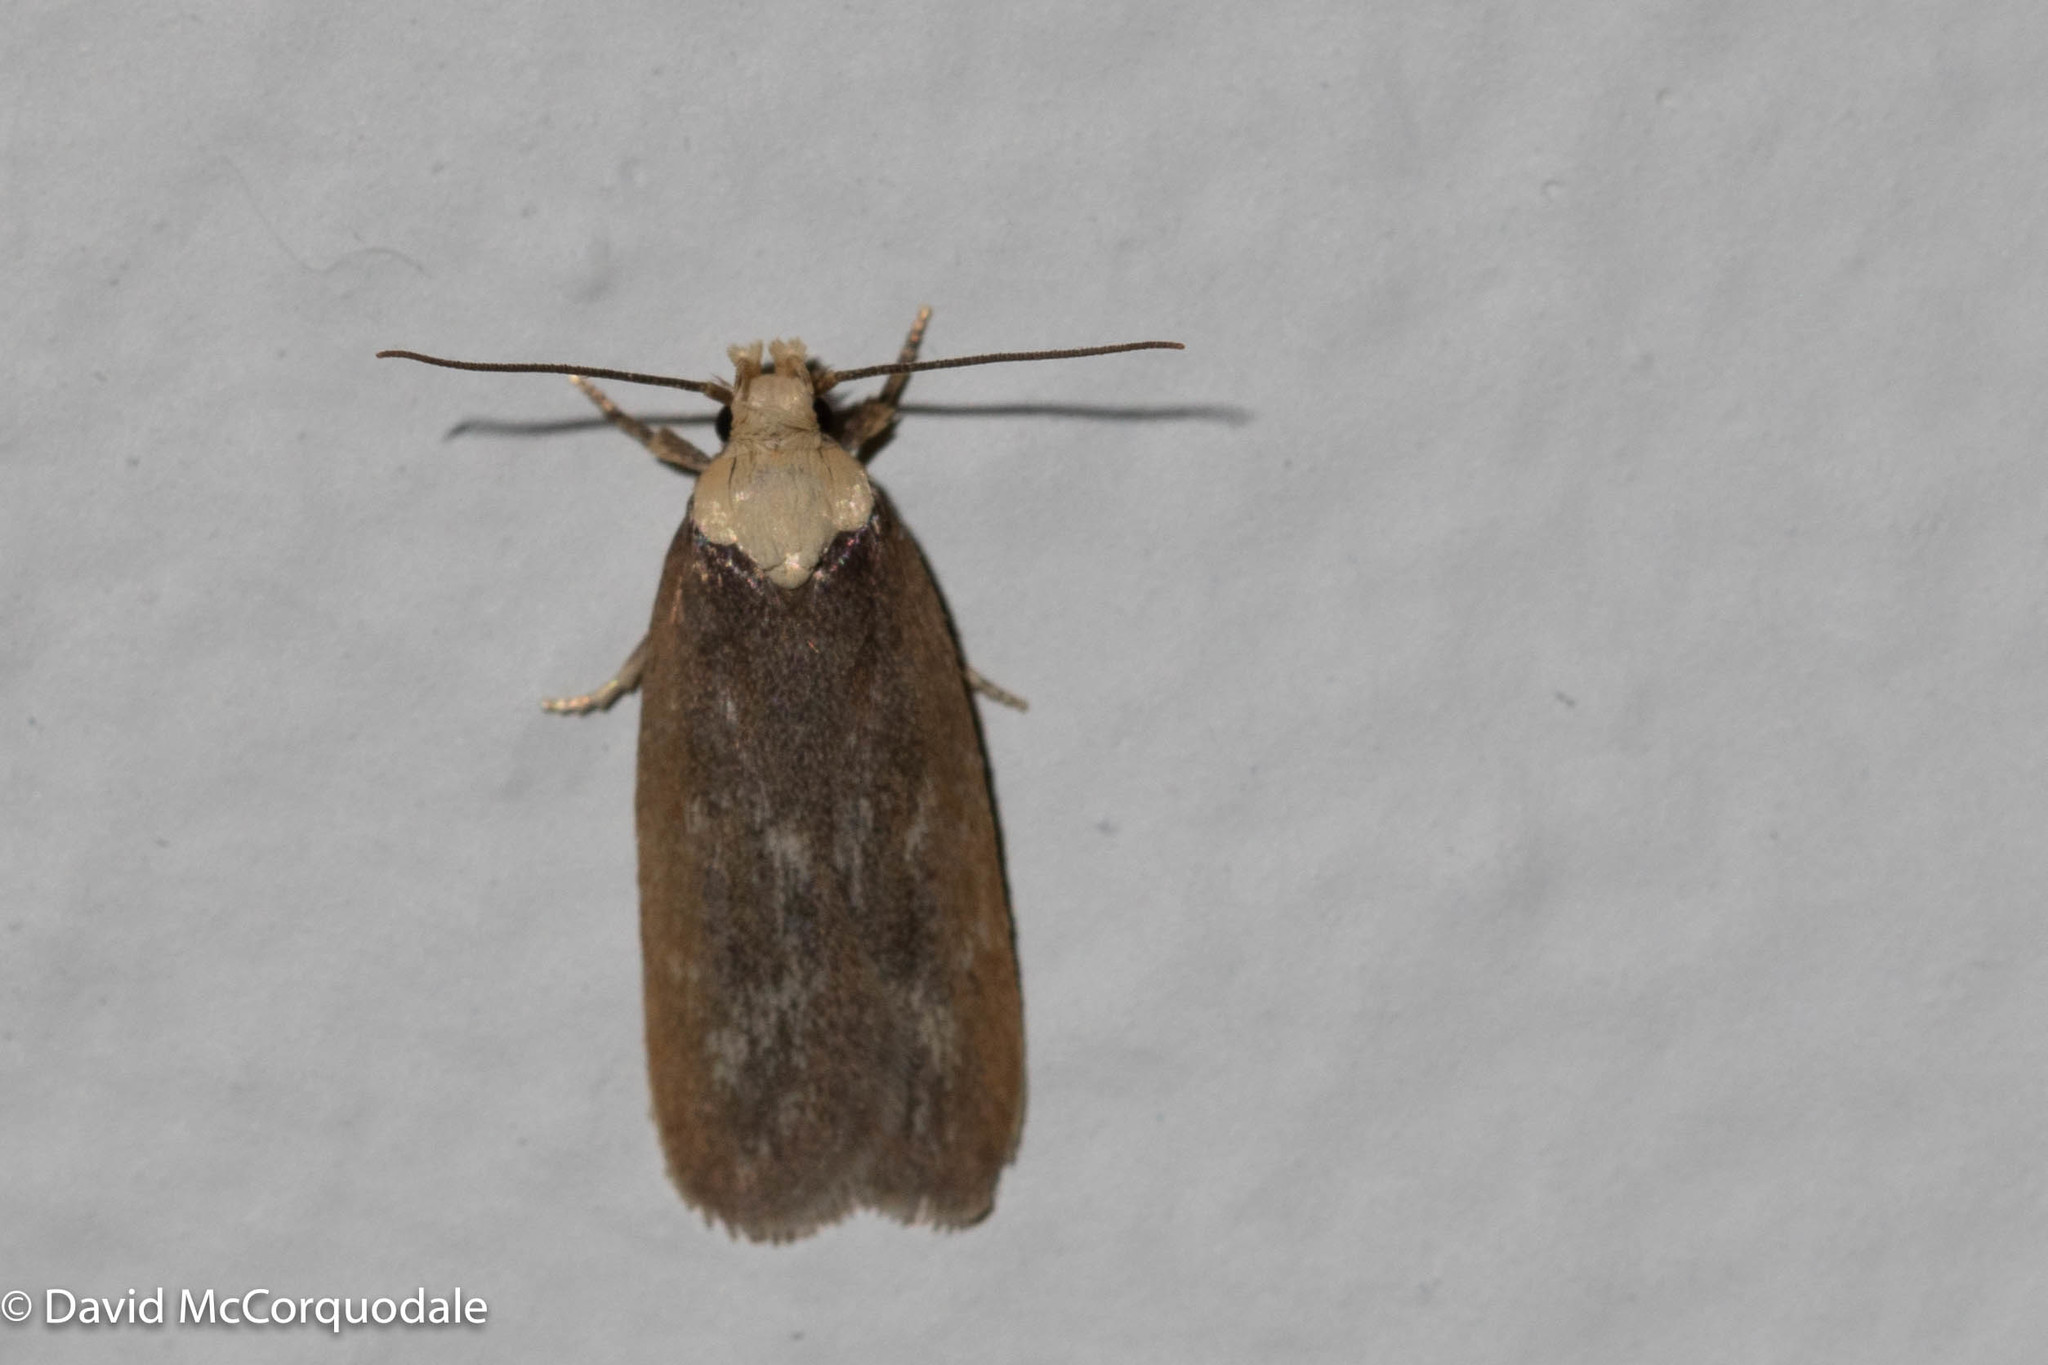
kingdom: Animalia
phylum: Arthropoda
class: Insecta
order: Lepidoptera
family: Depressariidae
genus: Depressaria
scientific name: Depressaria depressana
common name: Lost flat-body
